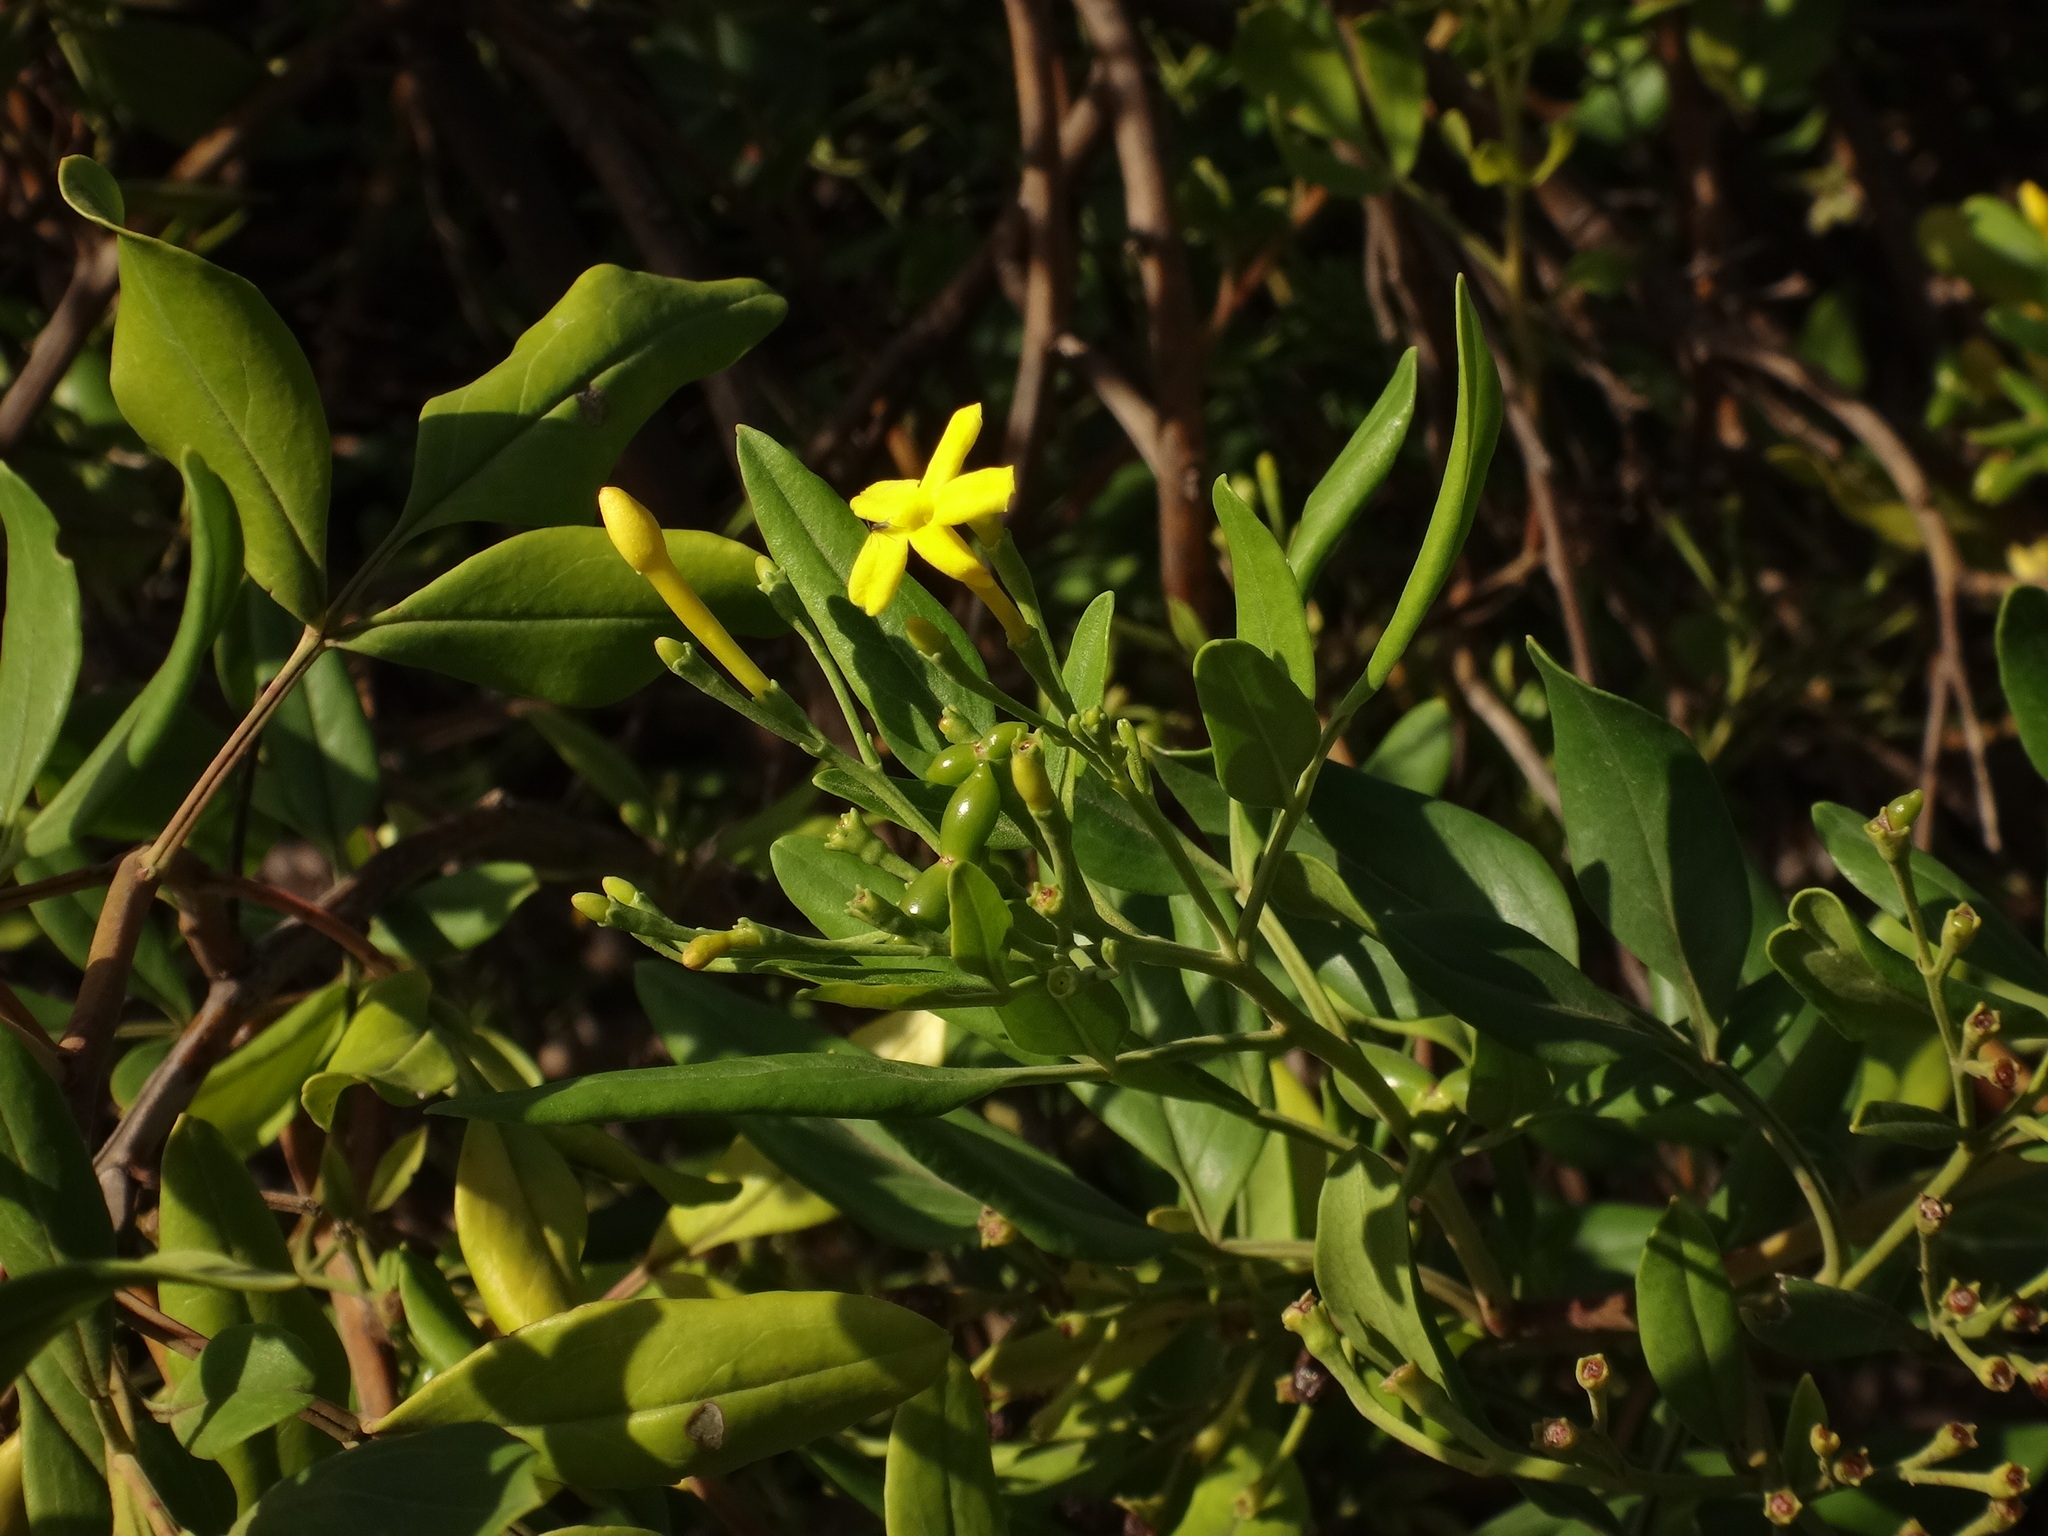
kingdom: Plantae
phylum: Tracheophyta
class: Magnoliopsida
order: Lamiales
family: Oleaceae
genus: Chrysojasminum
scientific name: Chrysojasminum odoratissimum
